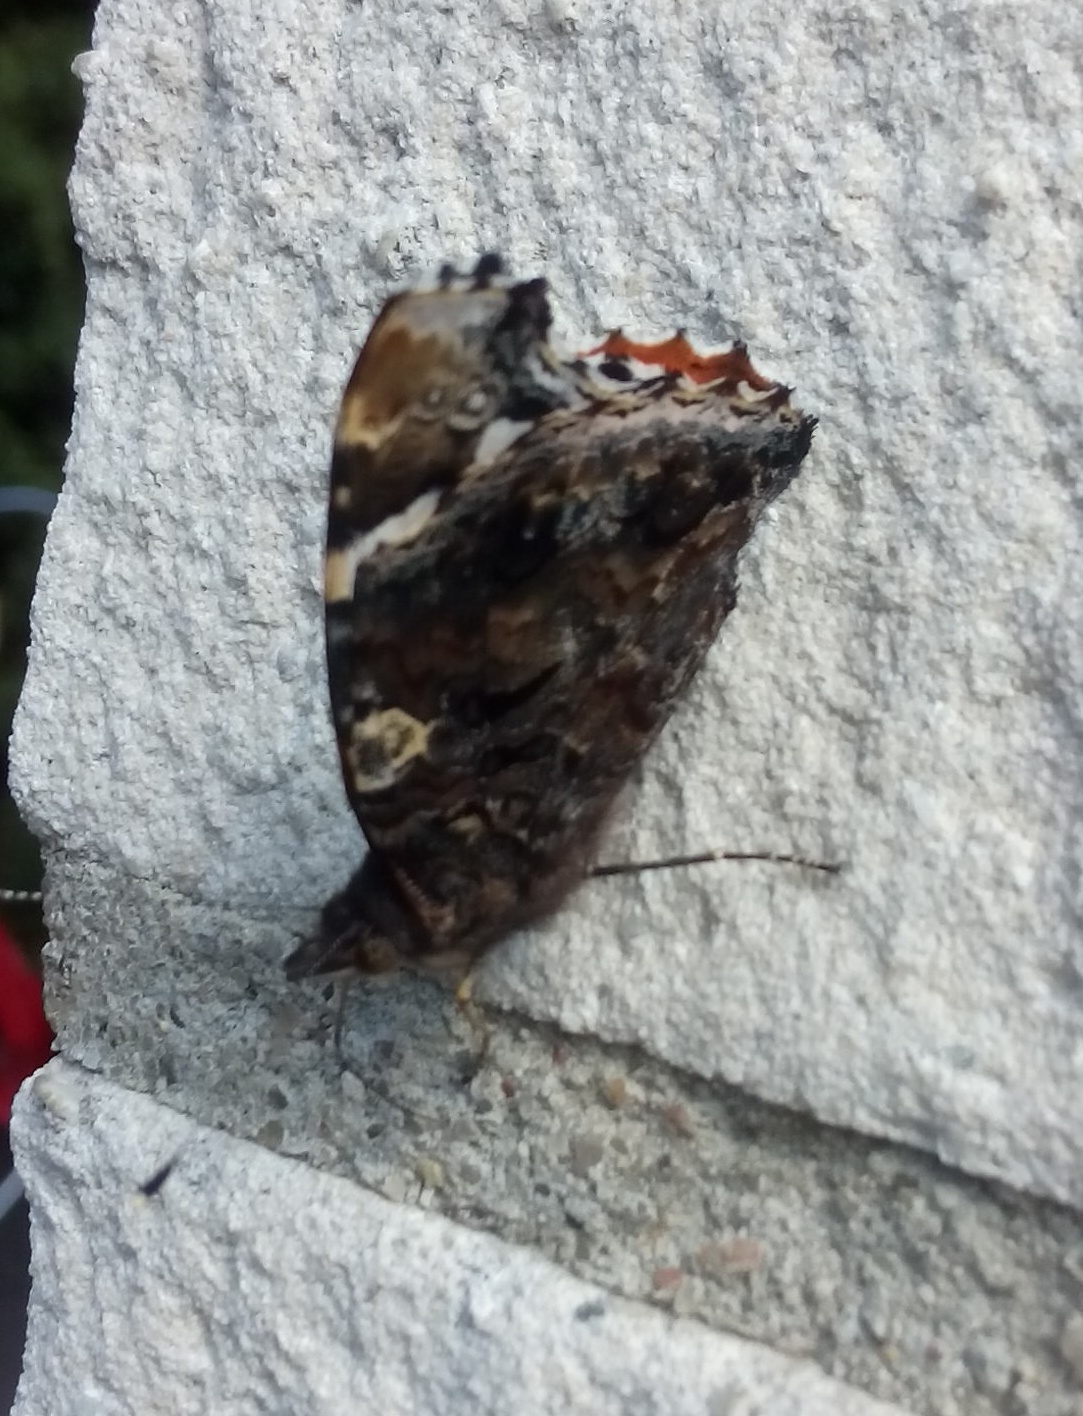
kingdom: Animalia
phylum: Arthropoda
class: Insecta
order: Lepidoptera
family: Nymphalidae
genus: Vanessa
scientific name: Vanessa atalanta
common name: Red admiral
